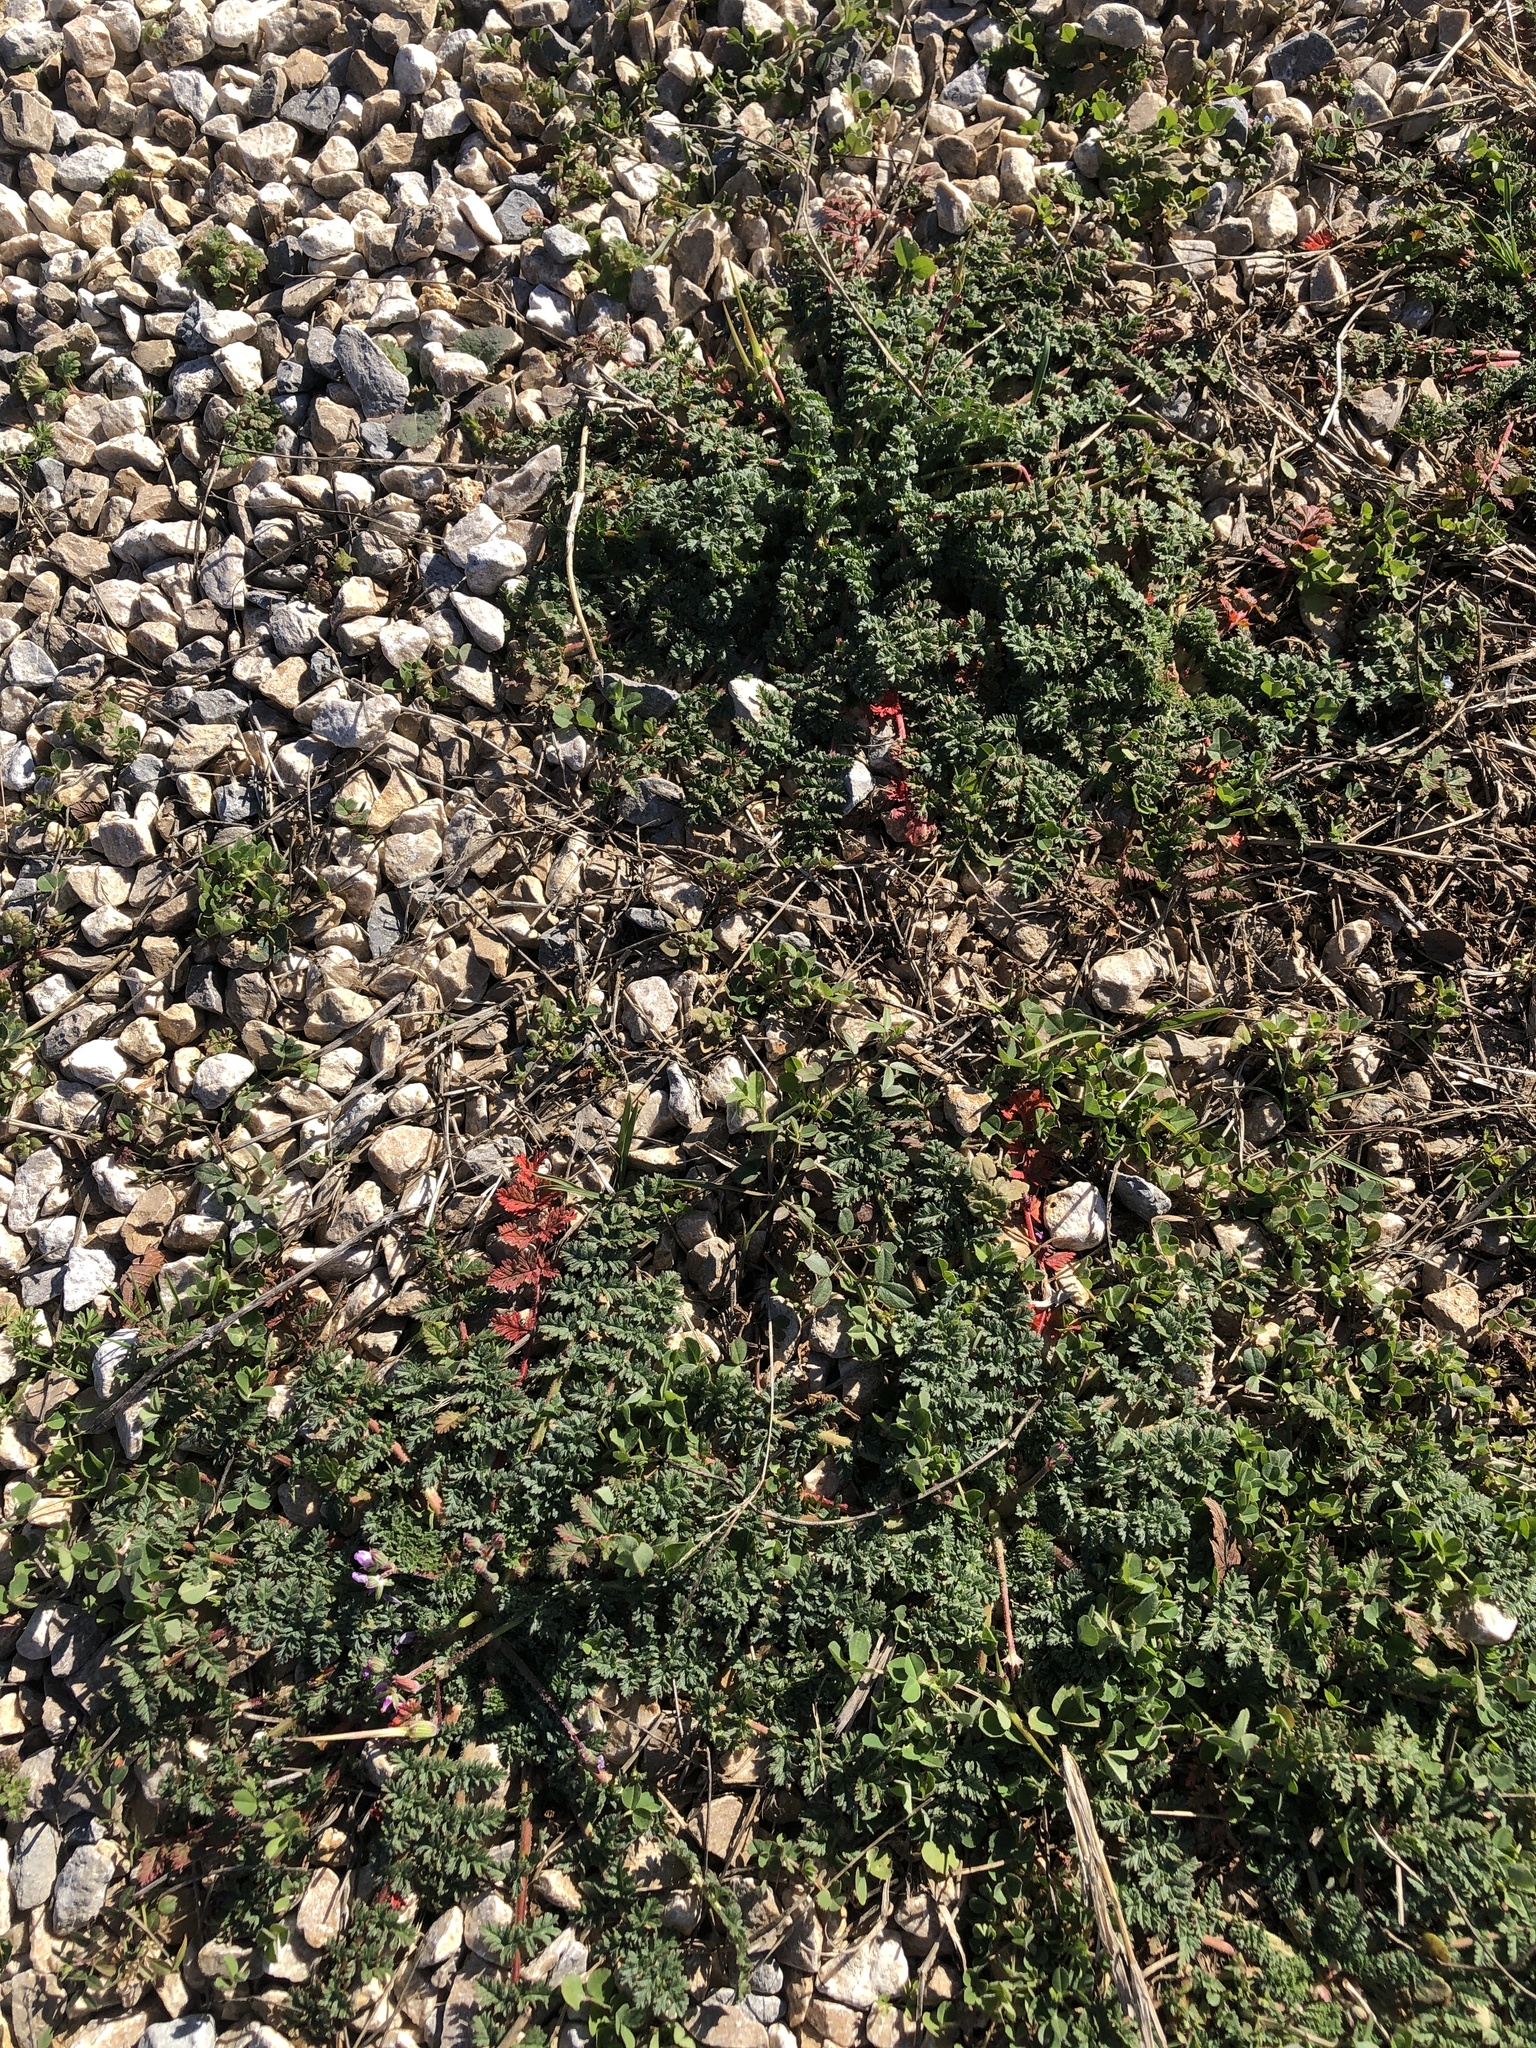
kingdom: Plantae
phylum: Tracheophyta
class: Magnoliopsida
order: Geraniales
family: Geraniaceae
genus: Erodium
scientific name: Erodium cicutarium
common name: Common stork's-bill
